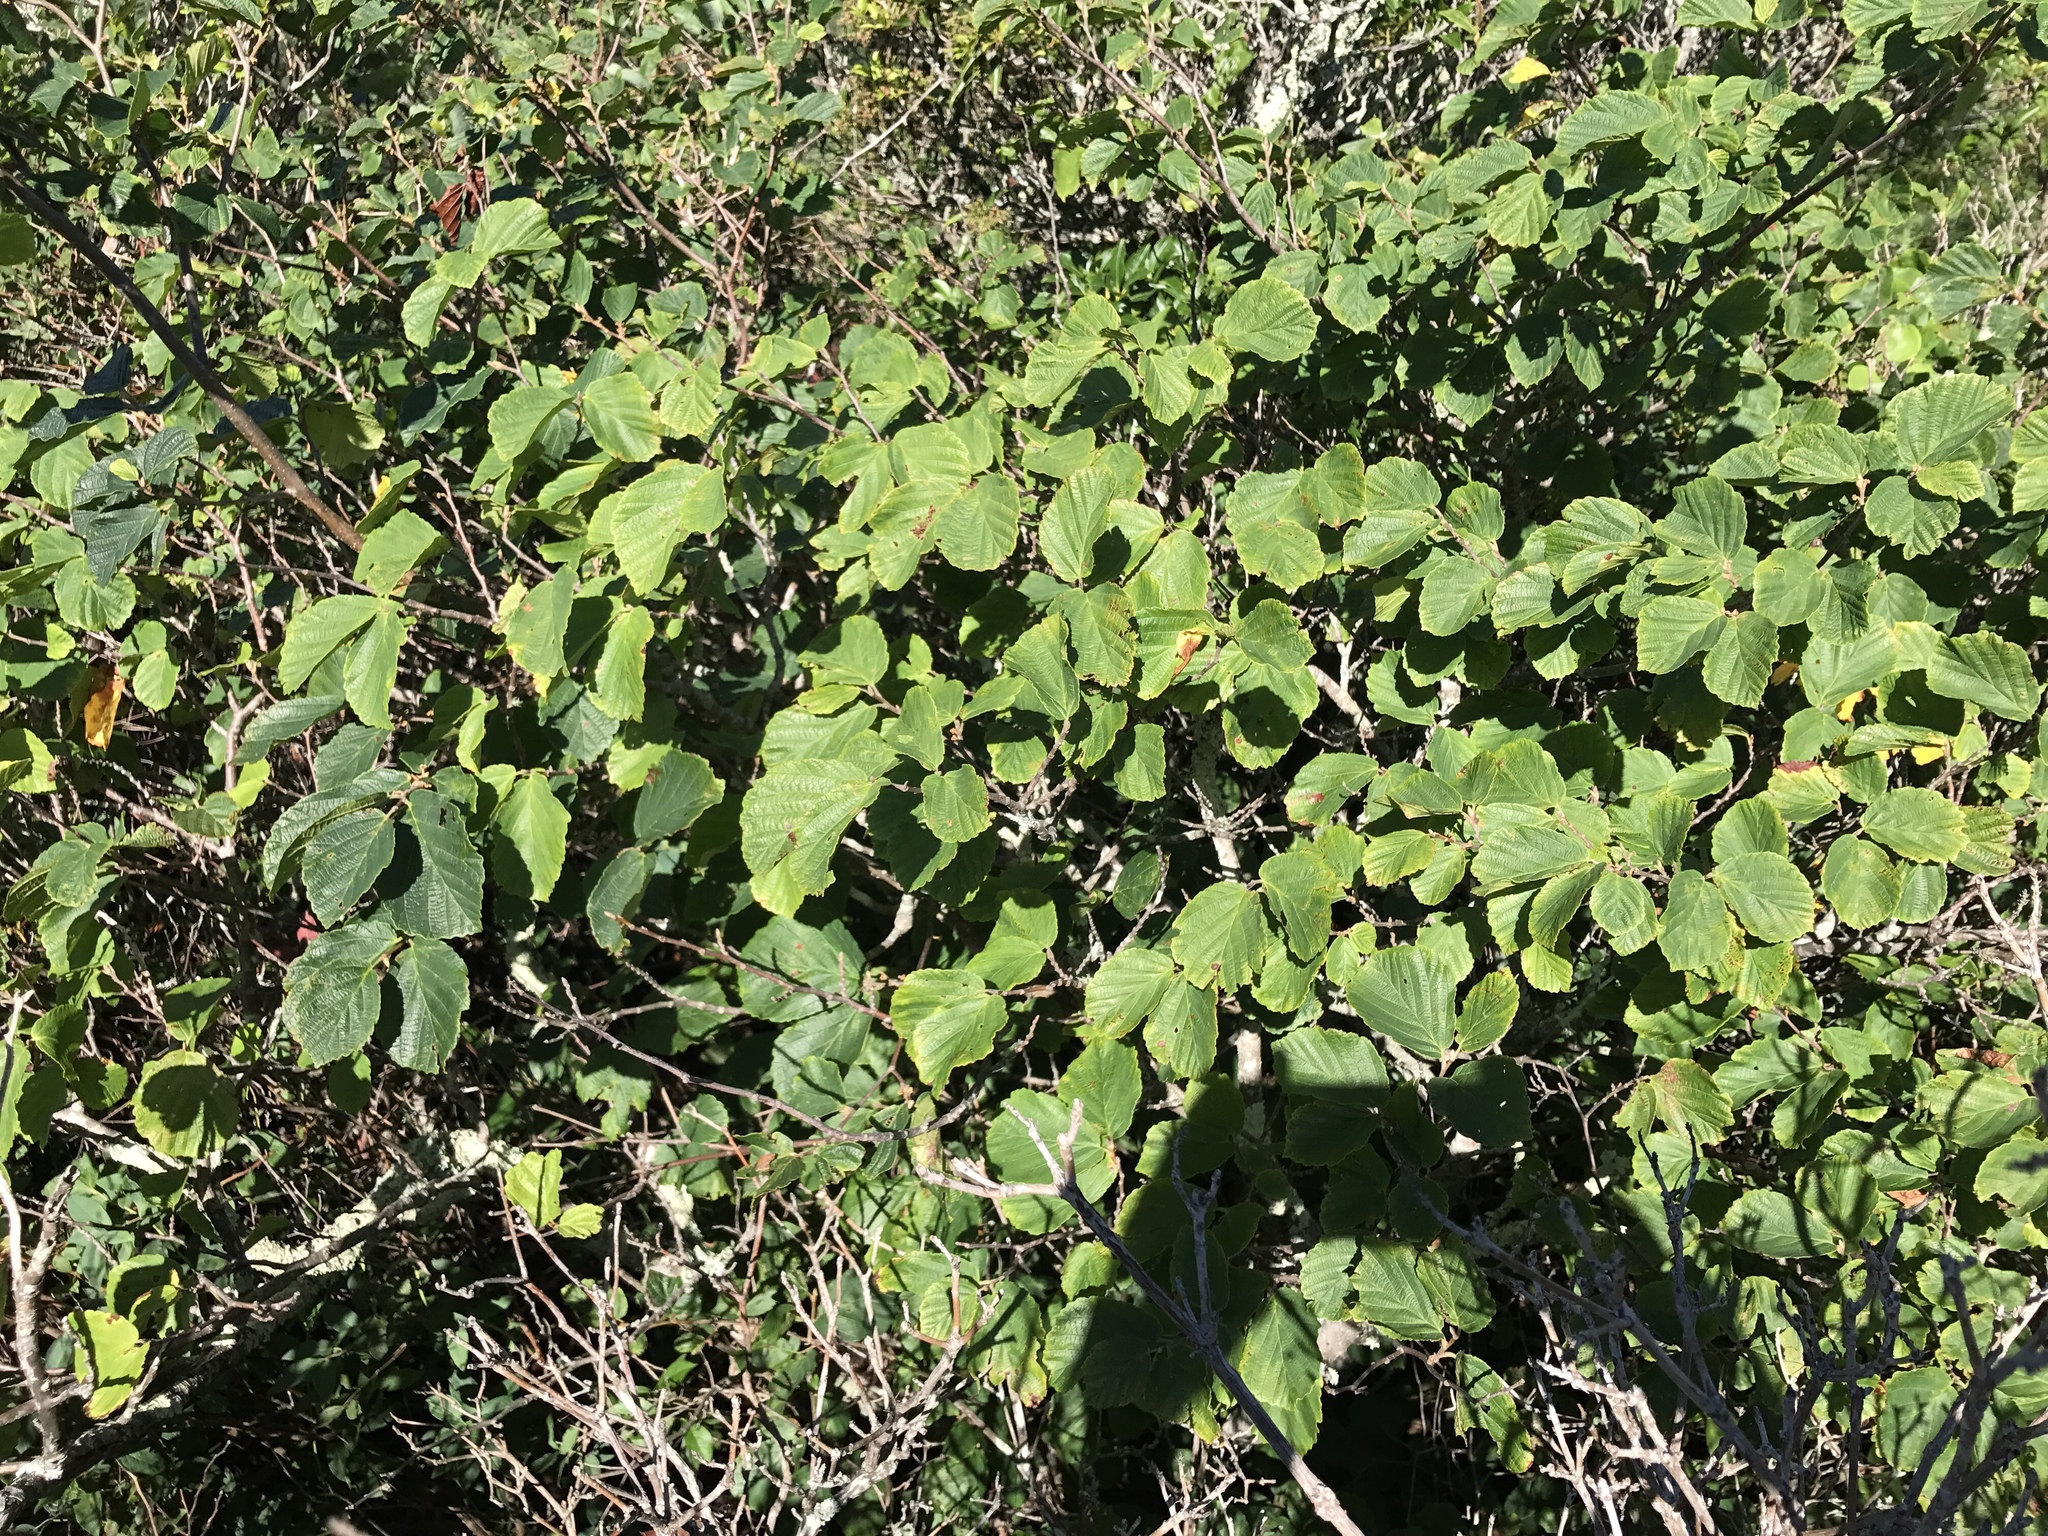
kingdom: Plantae
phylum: Tracheophyta
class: Magnoliopsida
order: Saxifragales
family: Hamamelidaceae
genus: Hamamelis
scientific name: Hamamelis virginiana
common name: Witch-hazel
